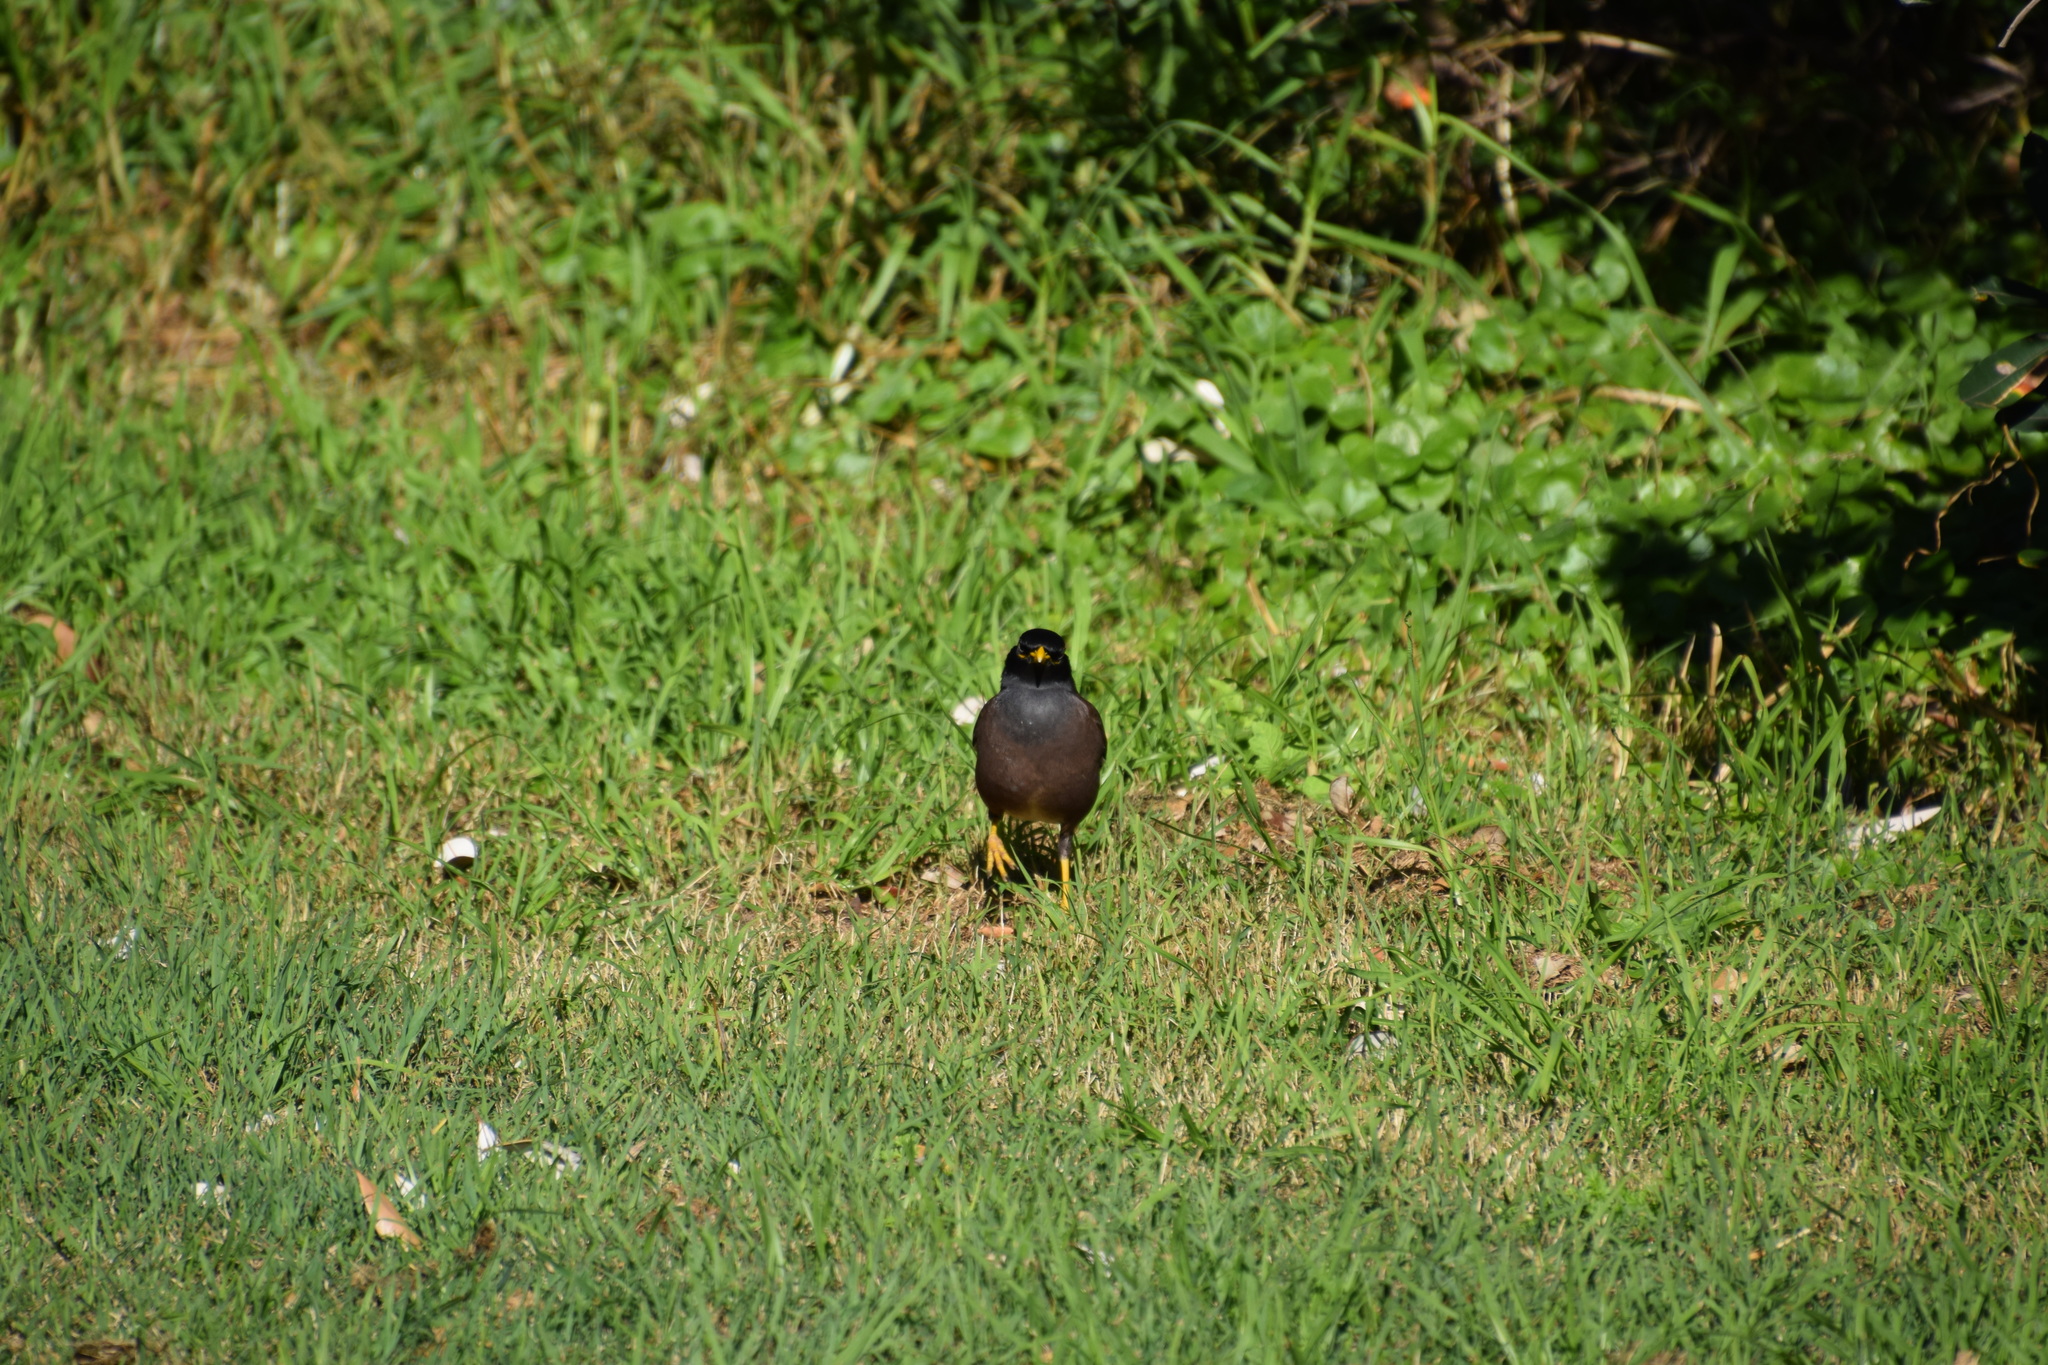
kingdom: Animalia
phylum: Chordata
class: Aves
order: Passeriformes
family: Sturnidae
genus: Acridotheres
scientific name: Acridotheres tristis
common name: Common myna
